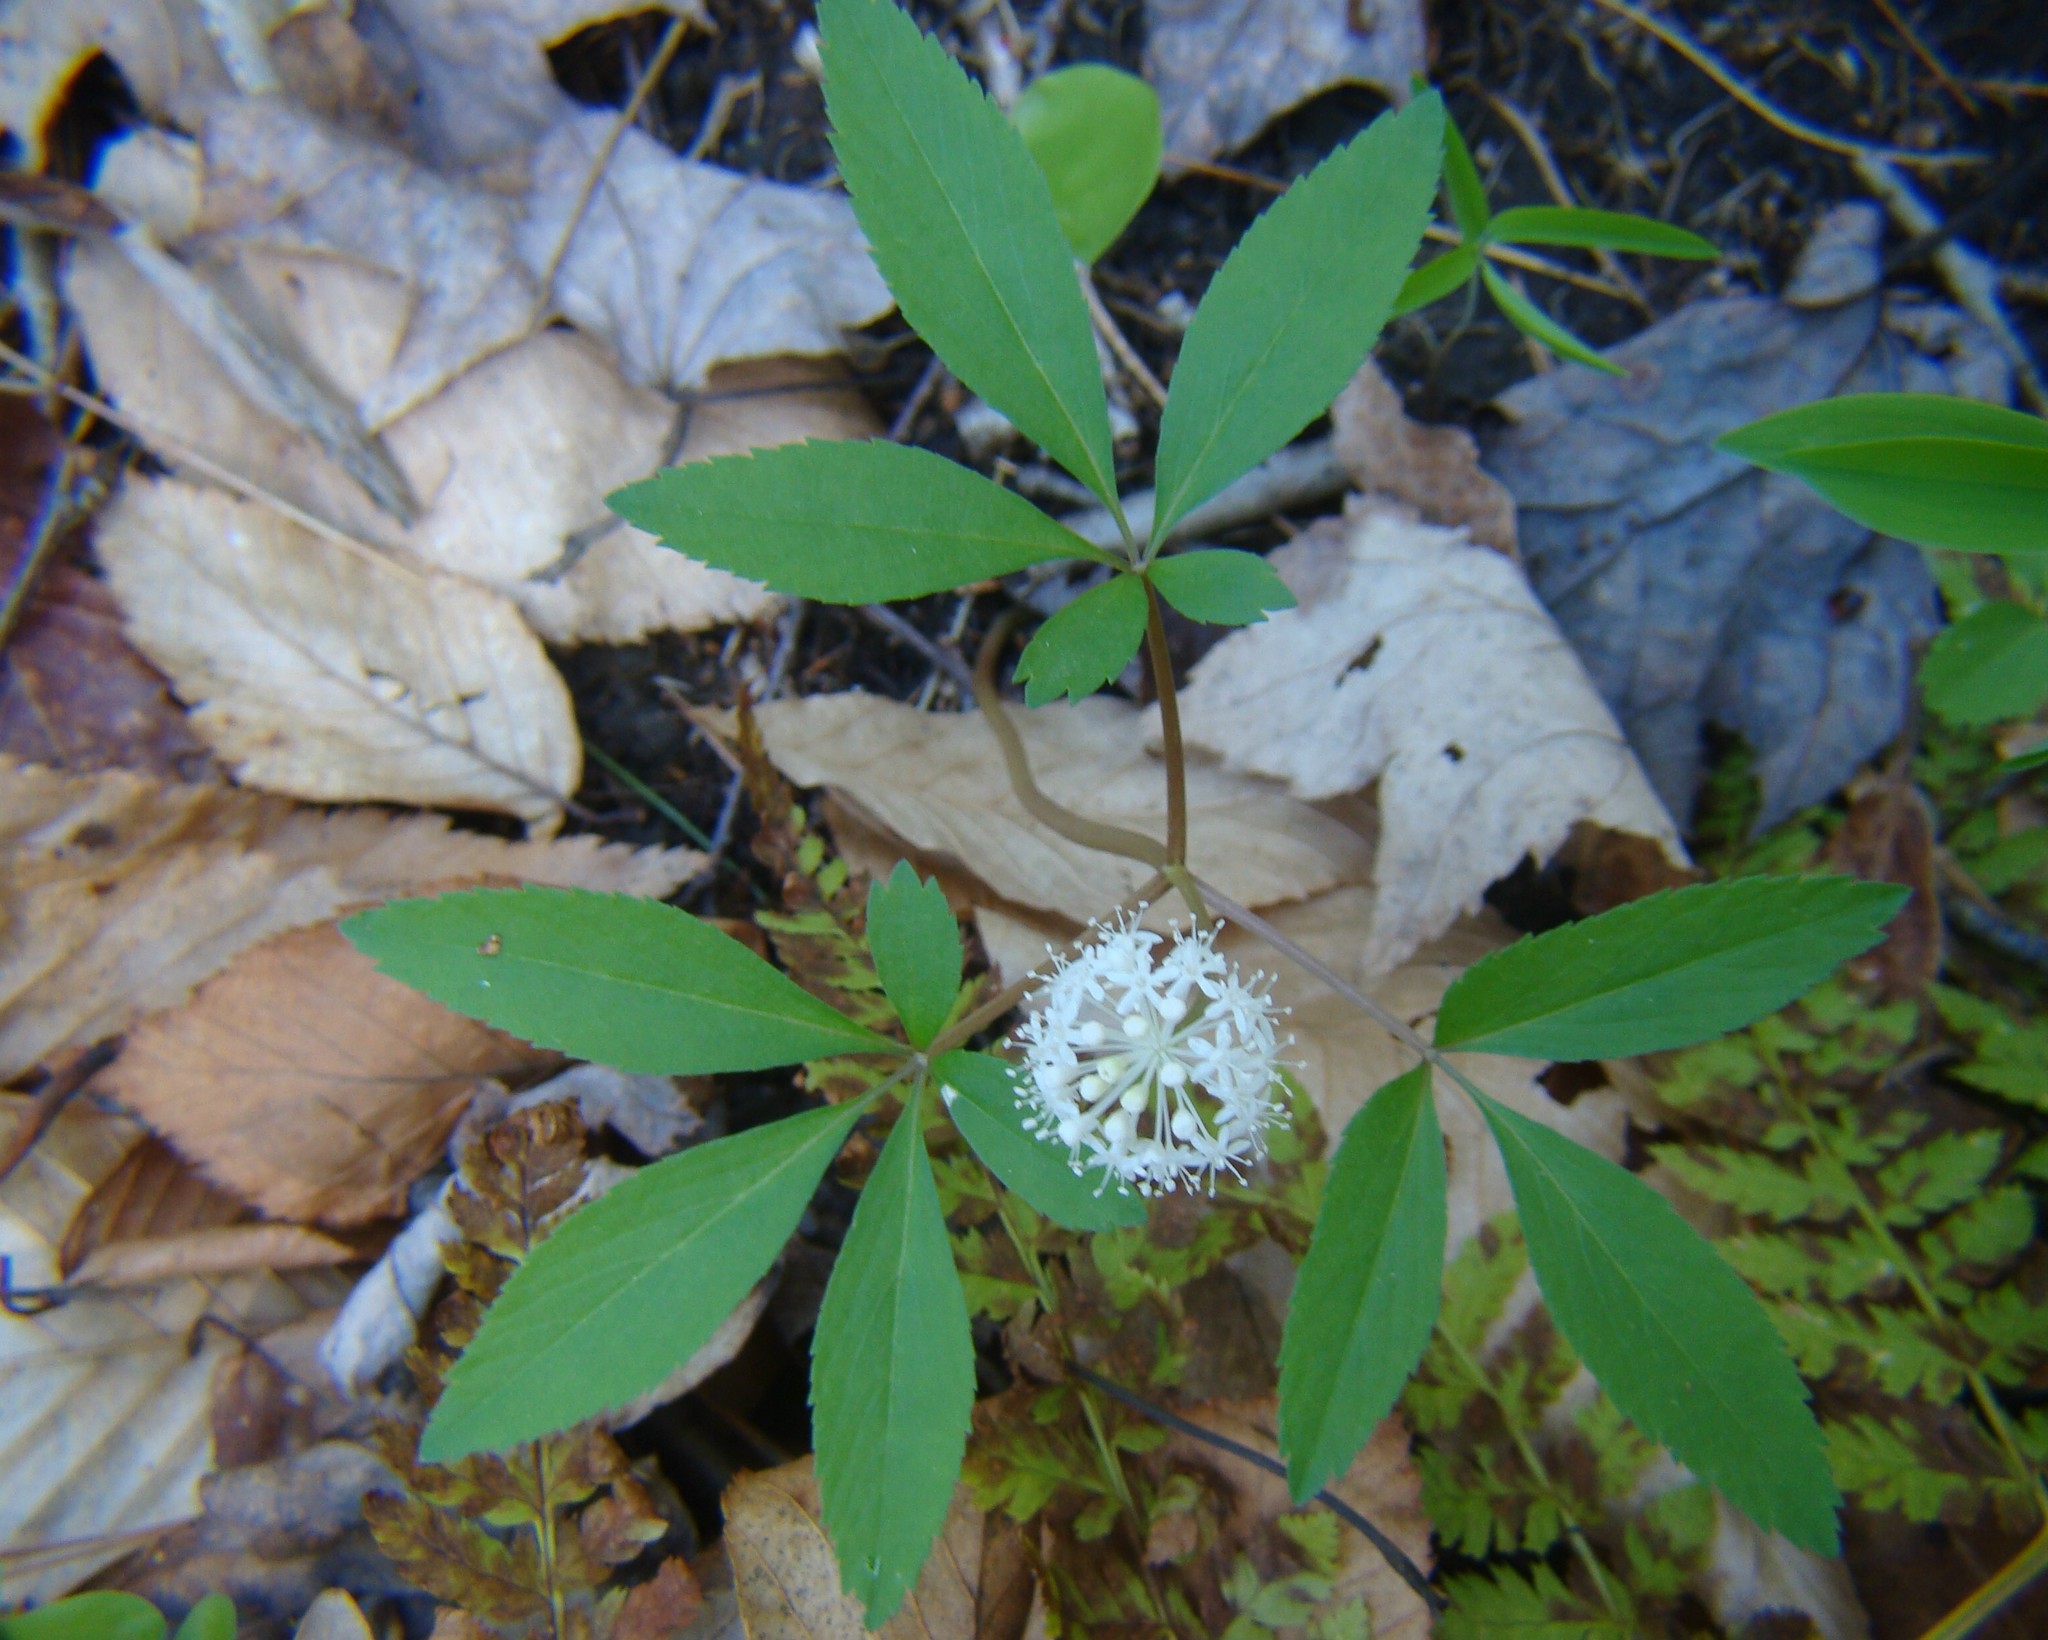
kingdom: Plantae
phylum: Tracheophyta
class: Magnoliopsida
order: Apiales
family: Araliaceae
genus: Panax
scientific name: Panax trifolius
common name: Dwarf ginseng
